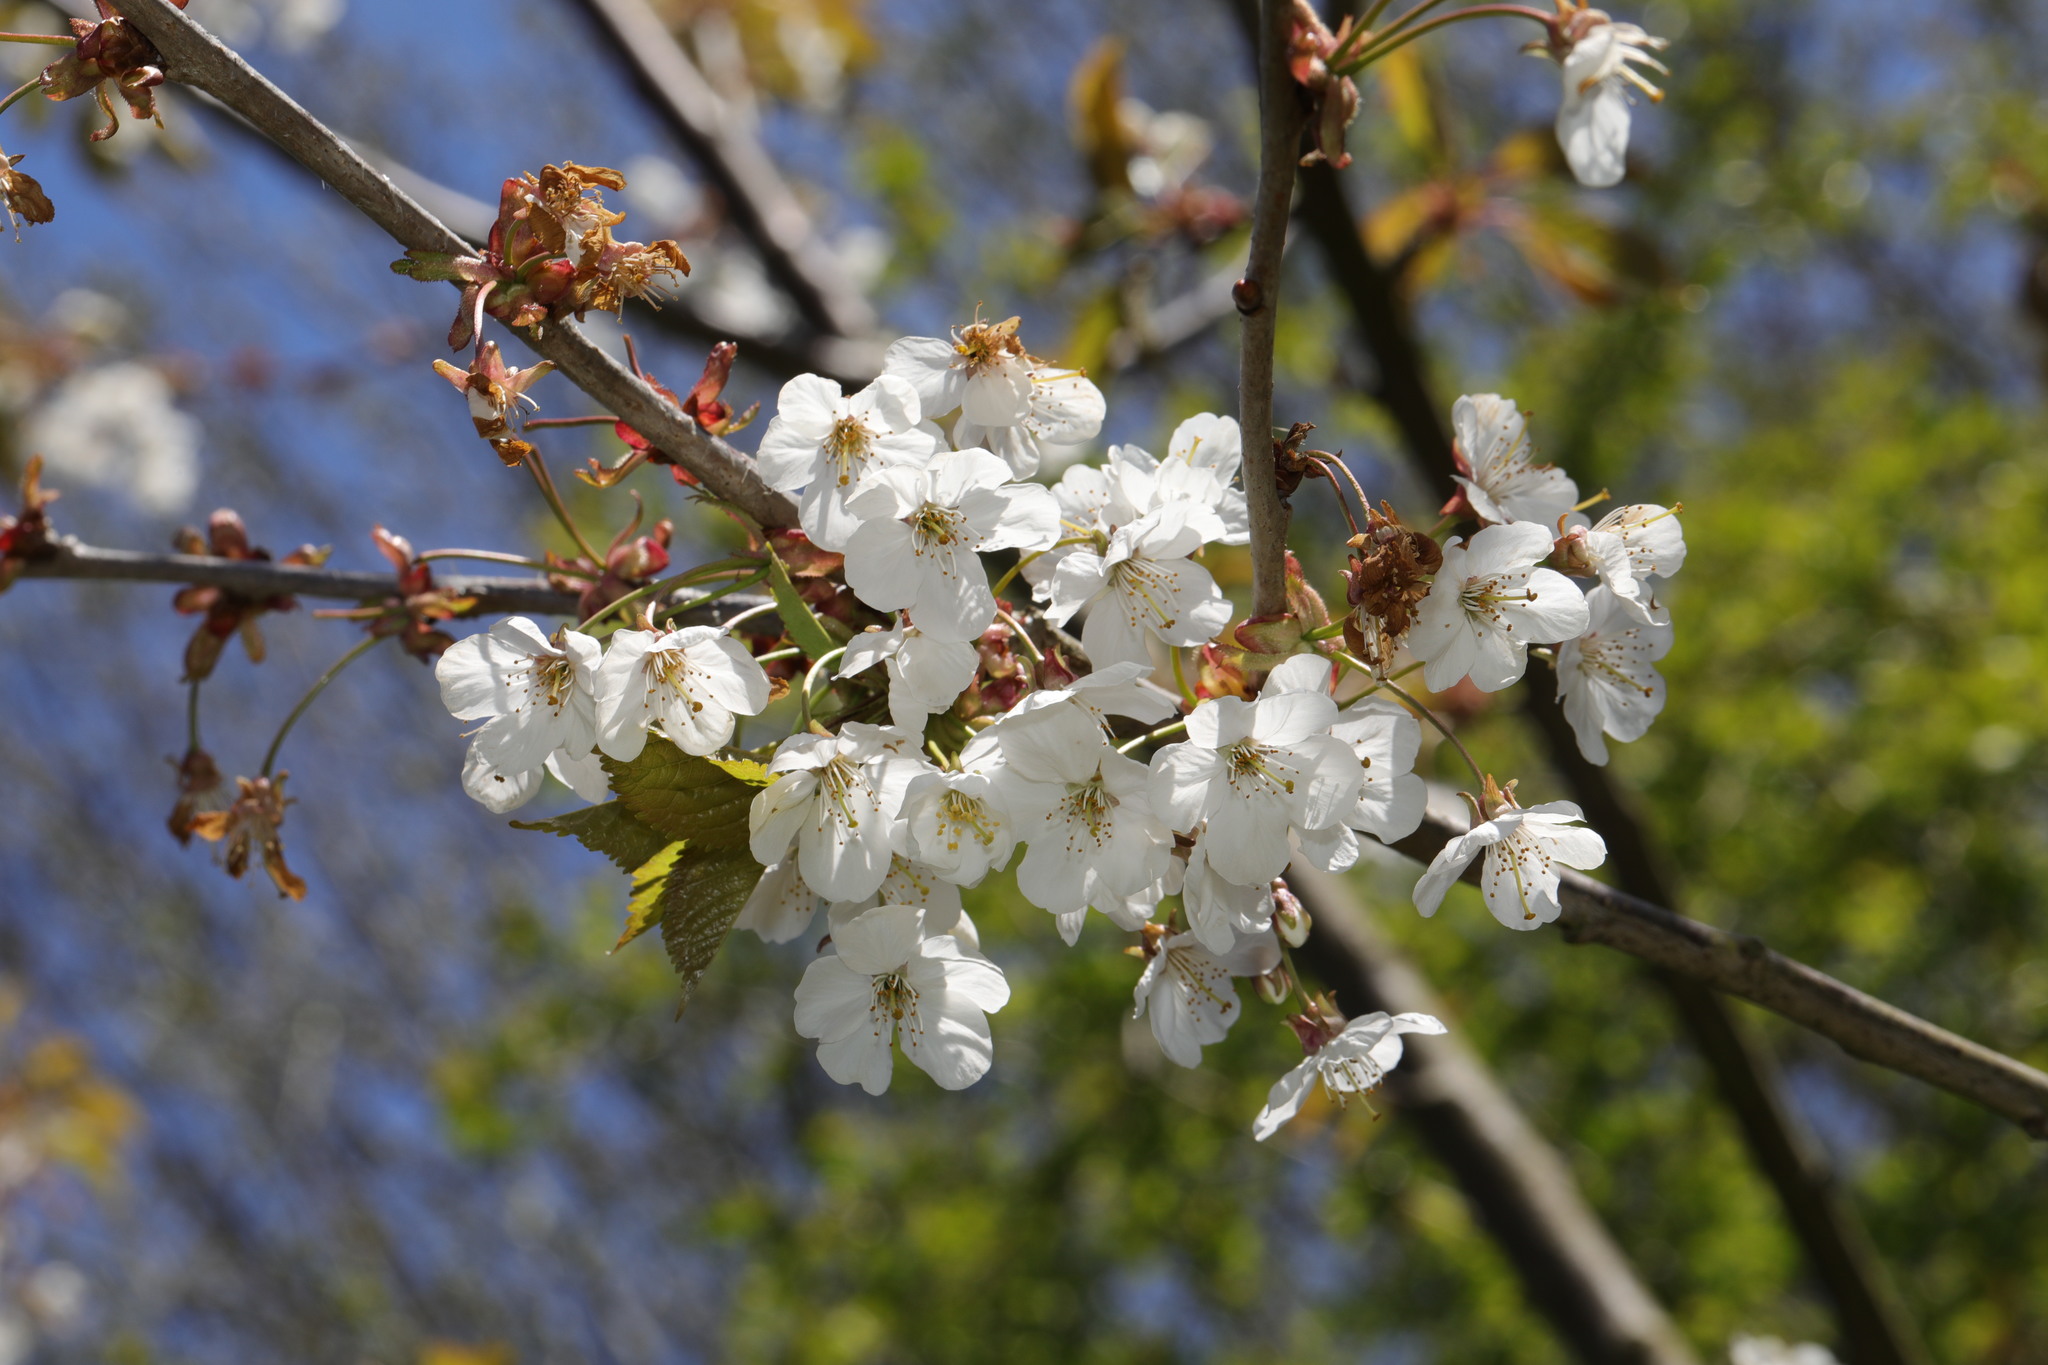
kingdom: Plantae
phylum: Tracheophyta
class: Magnoliopsida
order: Rosales
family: Rosaceae
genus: Prunus
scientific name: Prunus avium
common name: Sweet cherry
